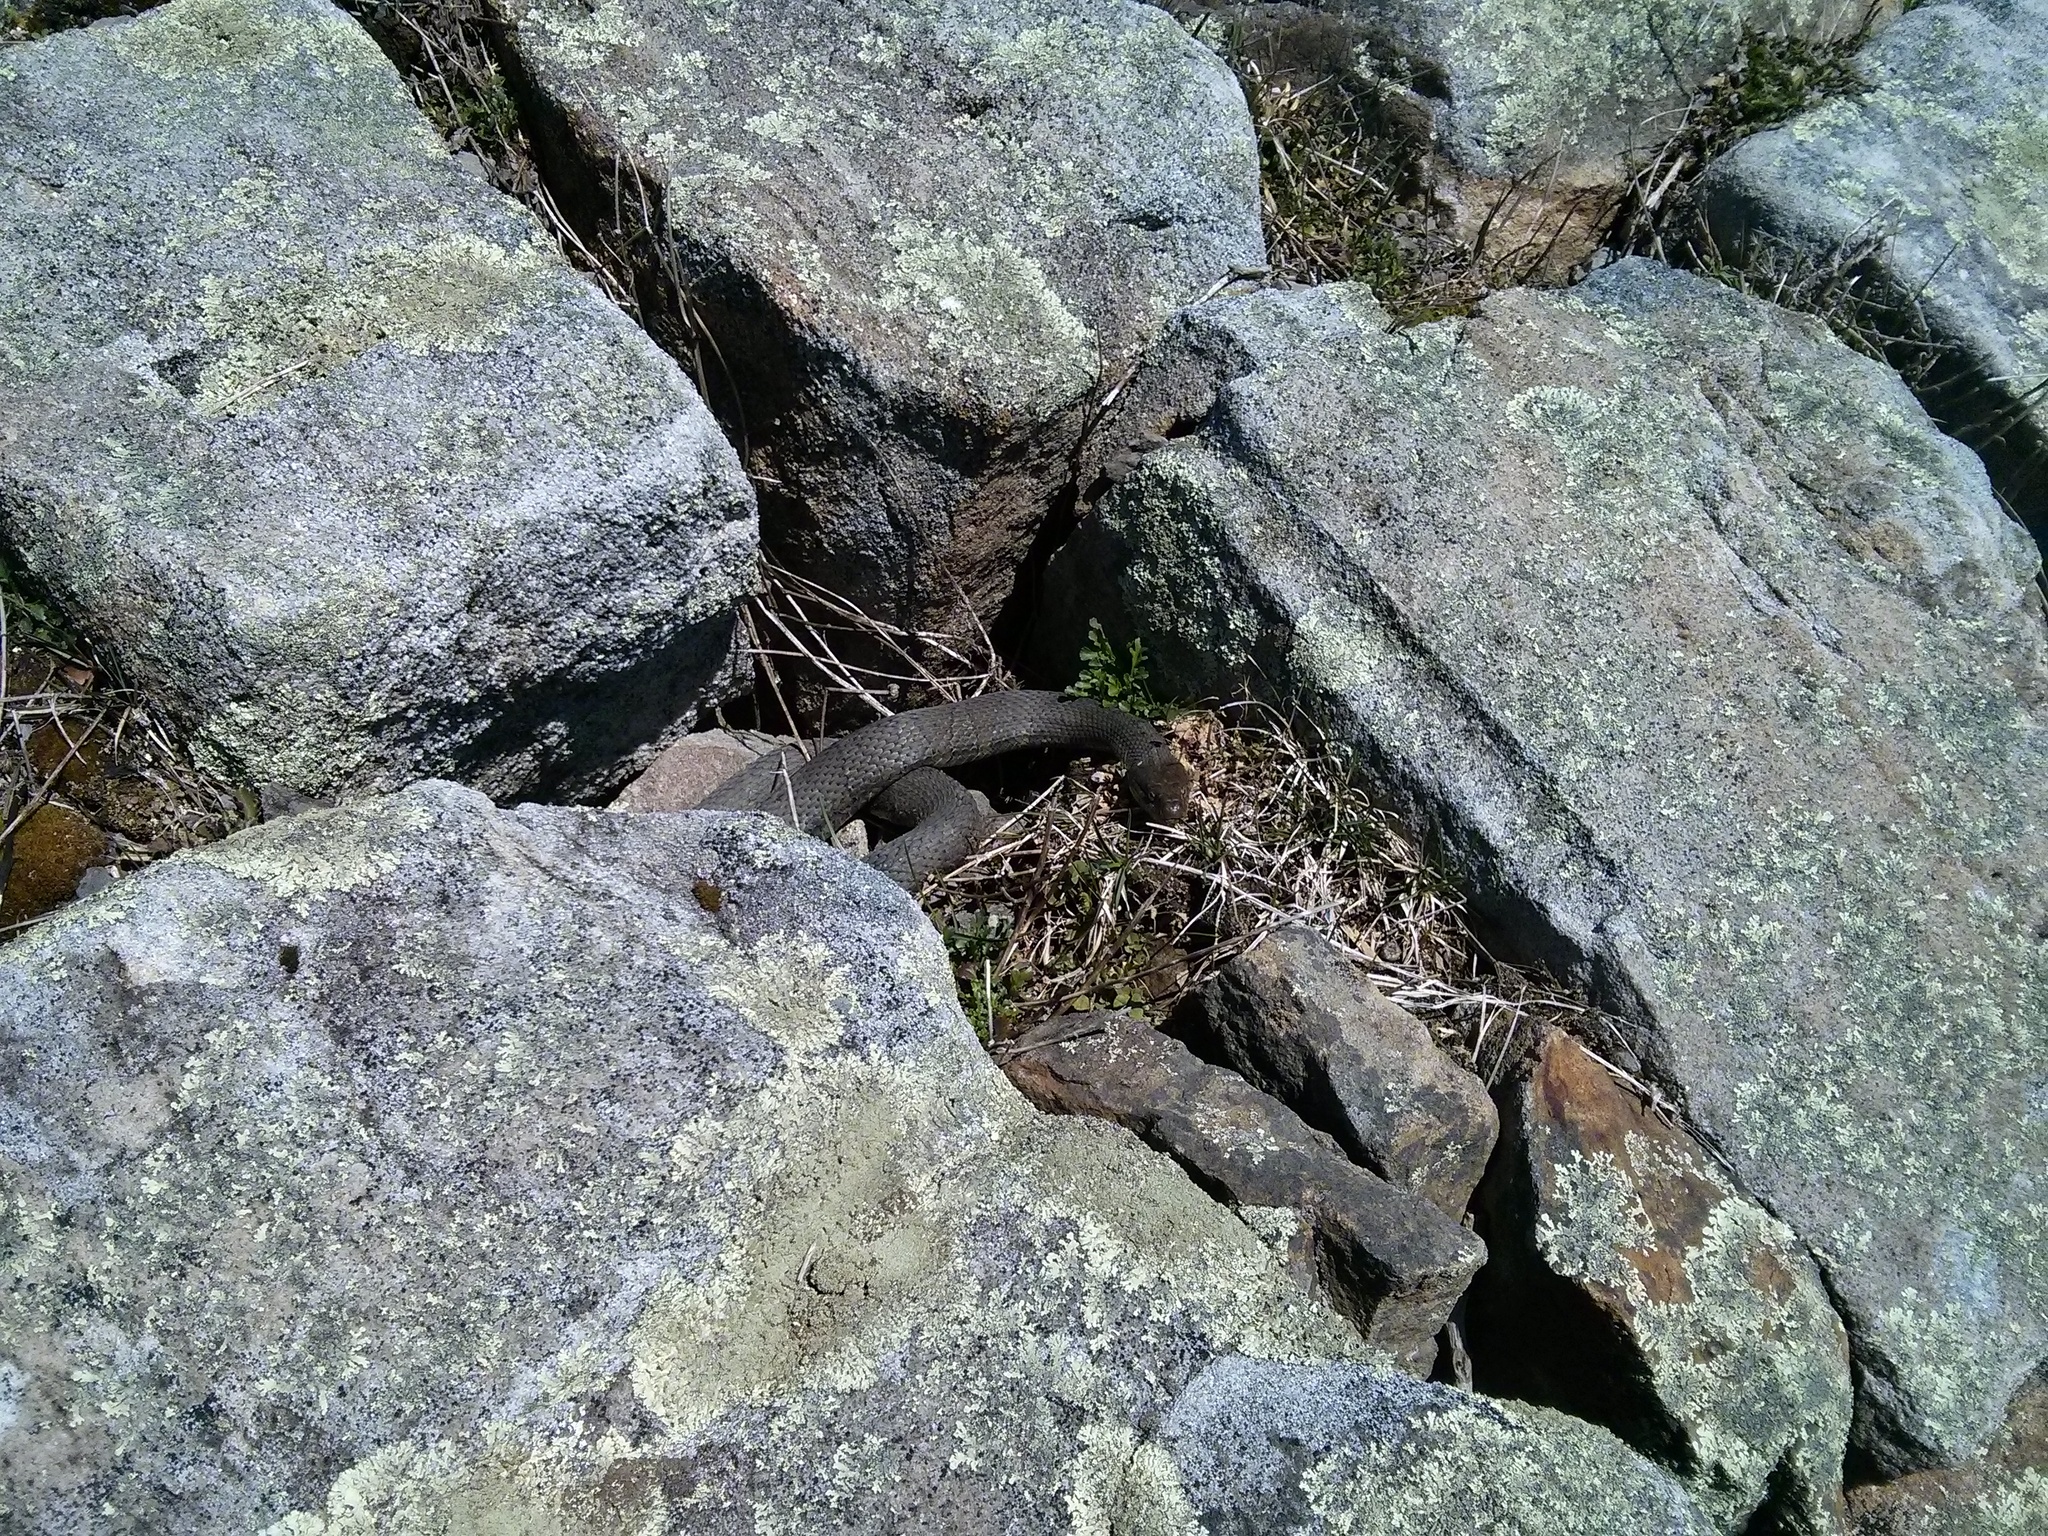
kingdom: Animalia
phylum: Chordata
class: Squamata
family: Colubridae
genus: Nerodia
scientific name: Nerodia sipedon
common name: Northern water snake
